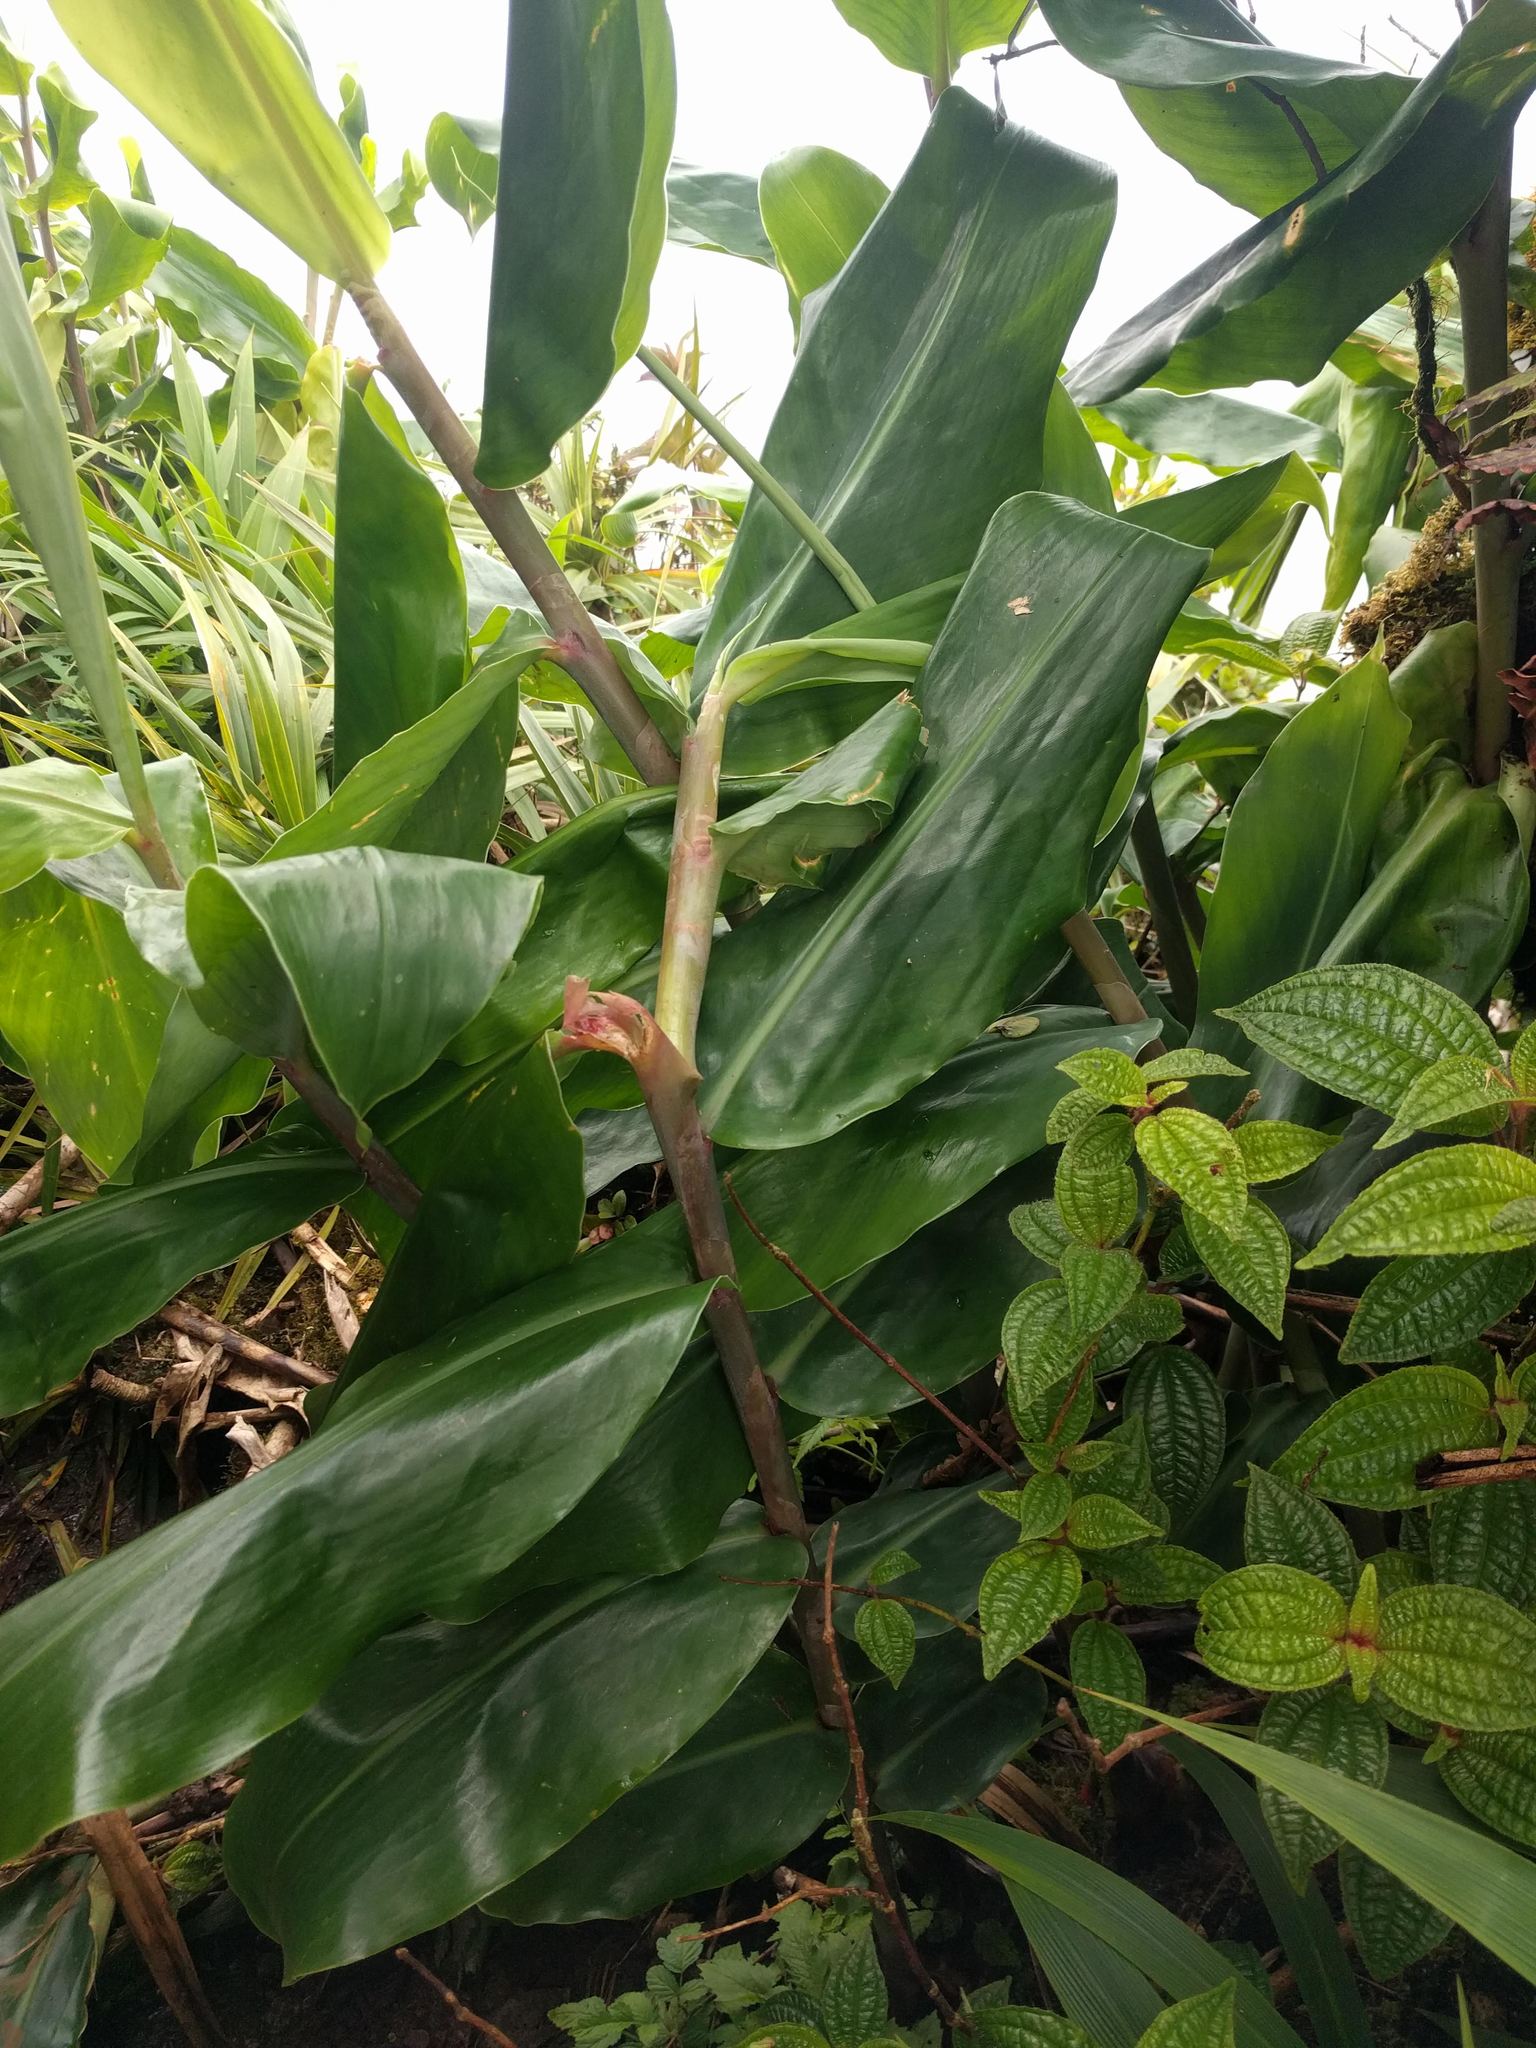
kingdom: Plantae
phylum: Tracheophyta
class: Liliopsida
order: Zingiberales
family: Zingiberaceae
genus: Hedychium
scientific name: Hedychium gardnerianum
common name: Himalayan ginger
